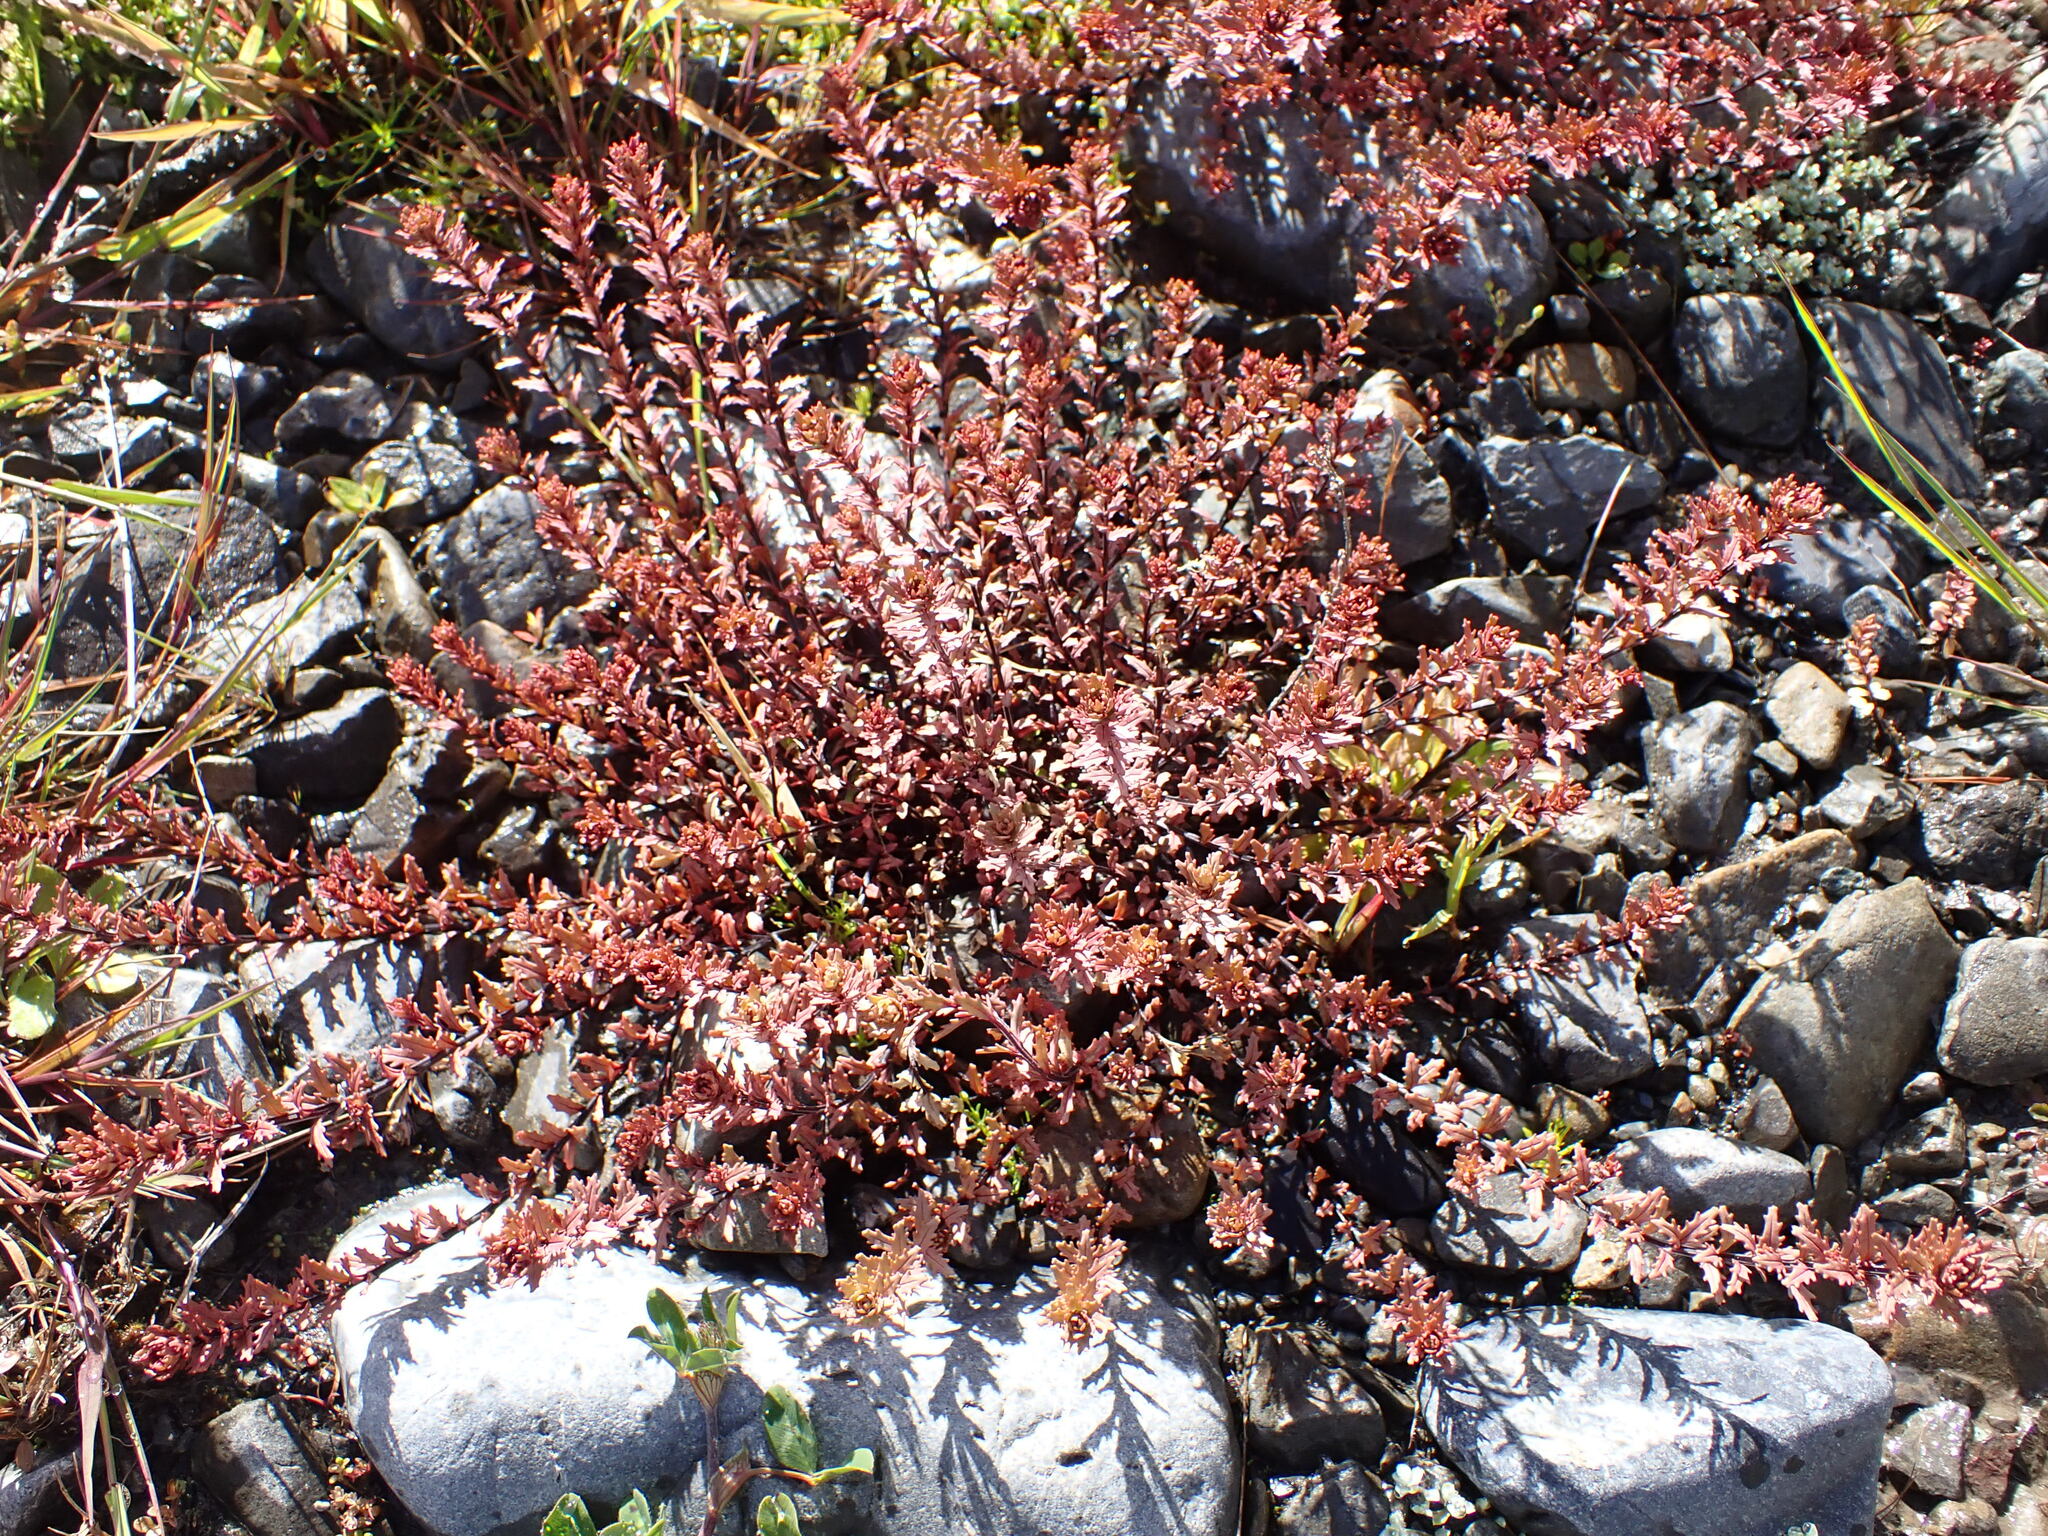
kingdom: Plantae
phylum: Tracheophyta
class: Magnoliopsida
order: Myrtales
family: Onagraceae
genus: Epilobium
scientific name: Epilobium melanocaulon
